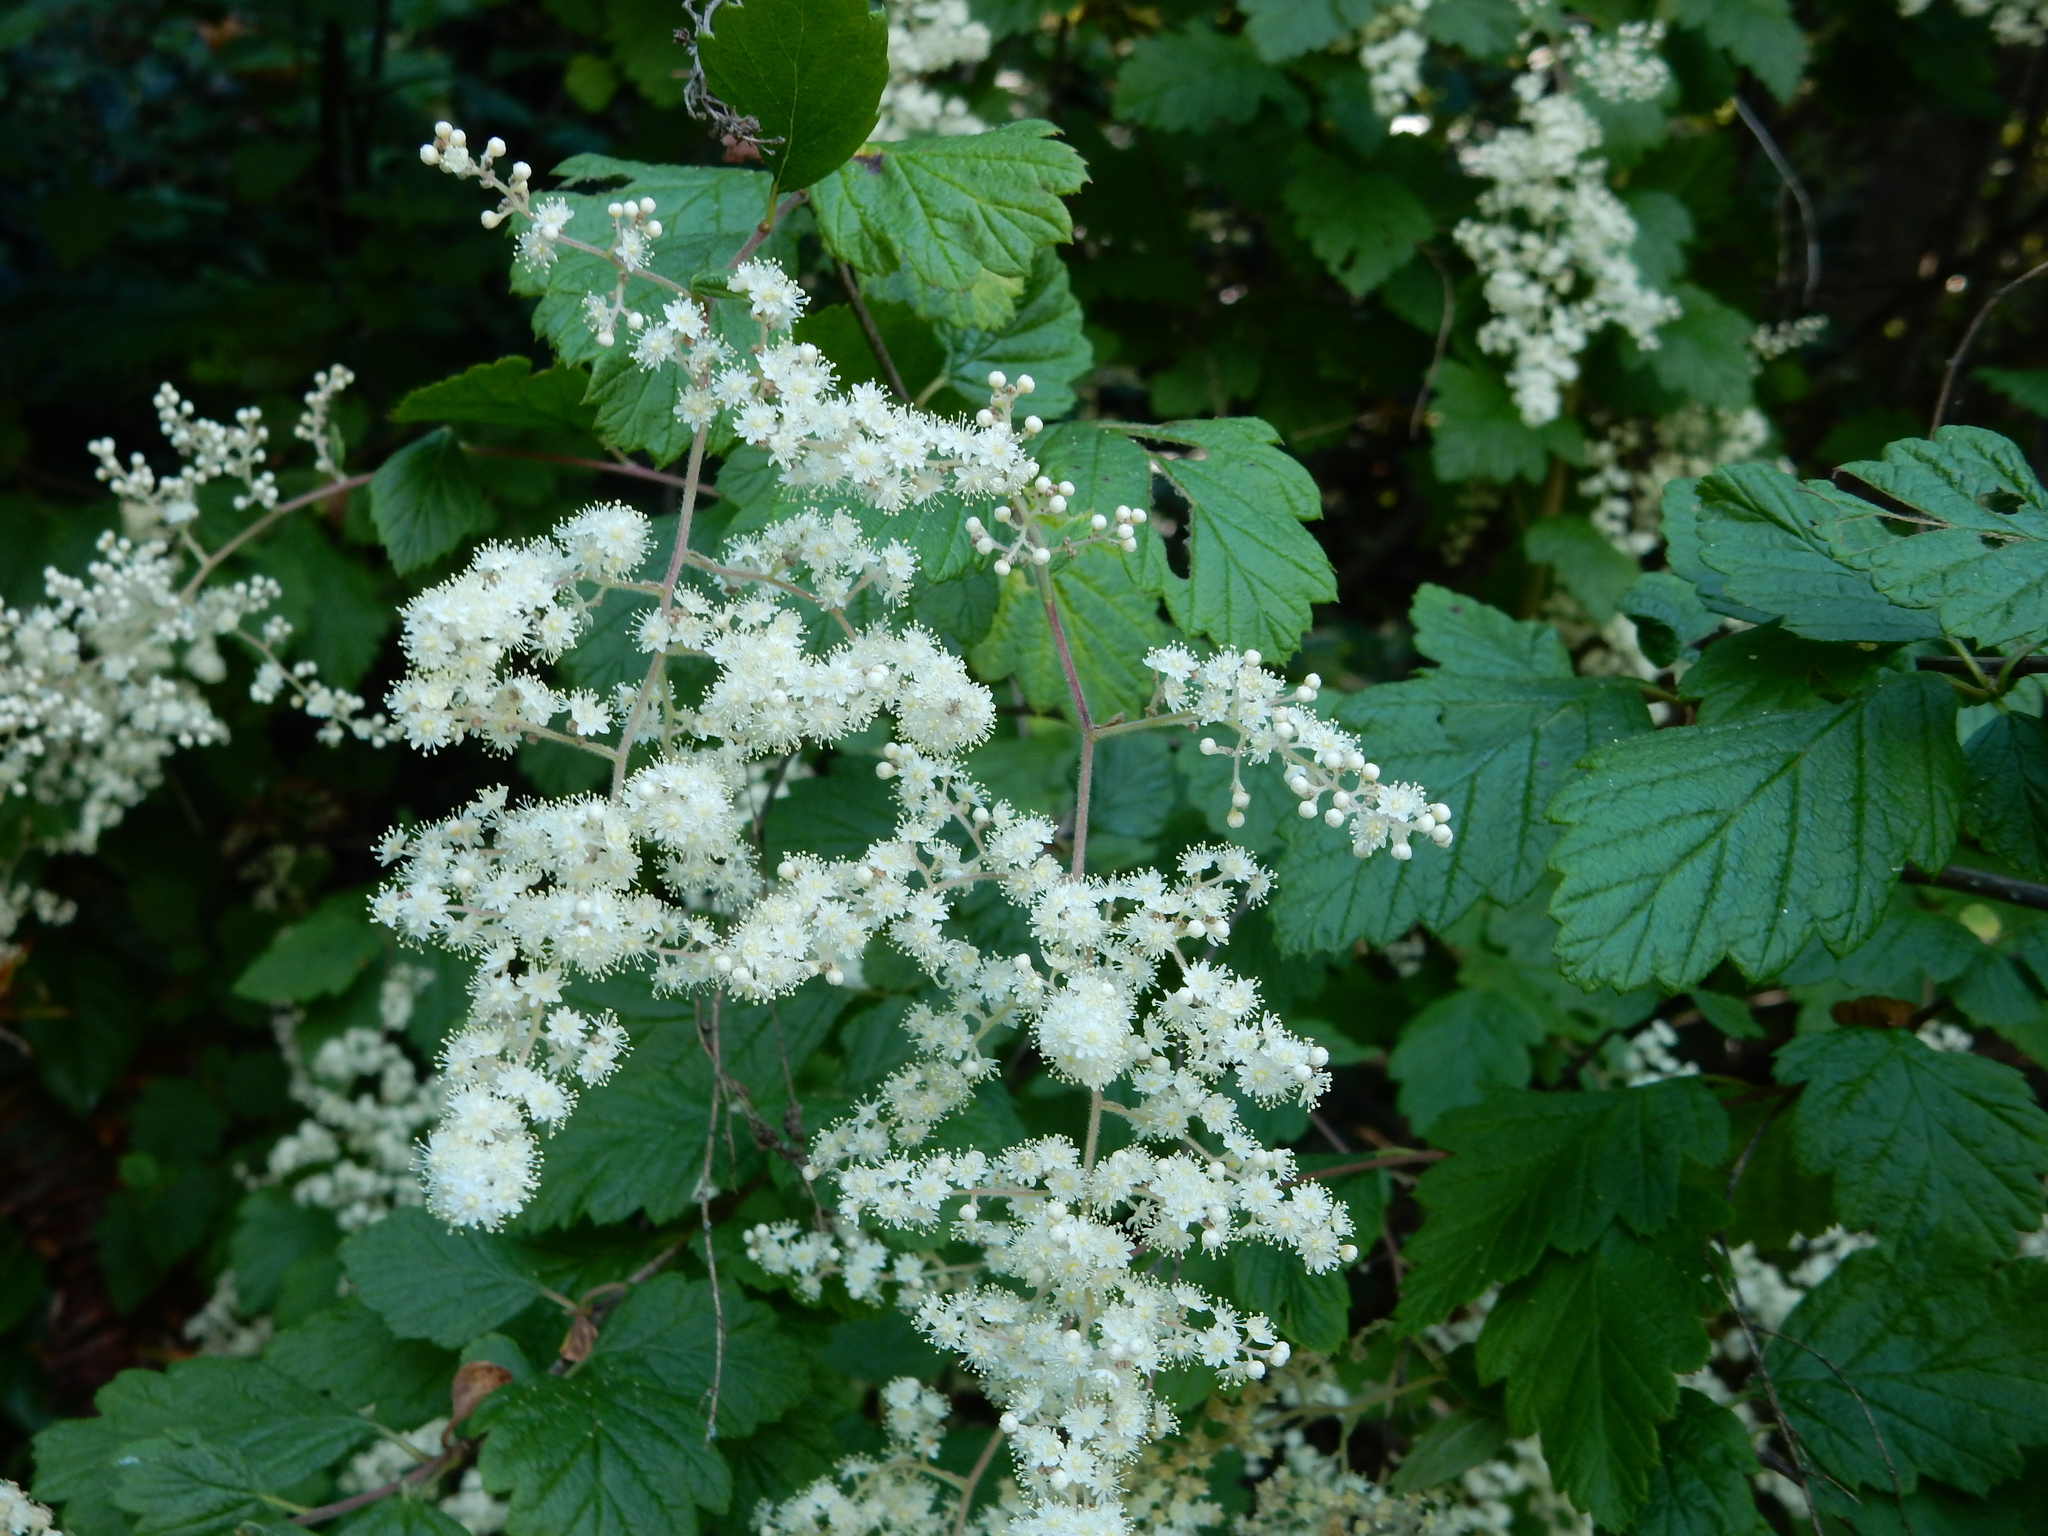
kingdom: Plantae
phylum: Tracheophyta
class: Magnoliopsida
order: Rosales
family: Rosaceae
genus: Holodiscus
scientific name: Holodiscus discolor
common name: Oceanspray
